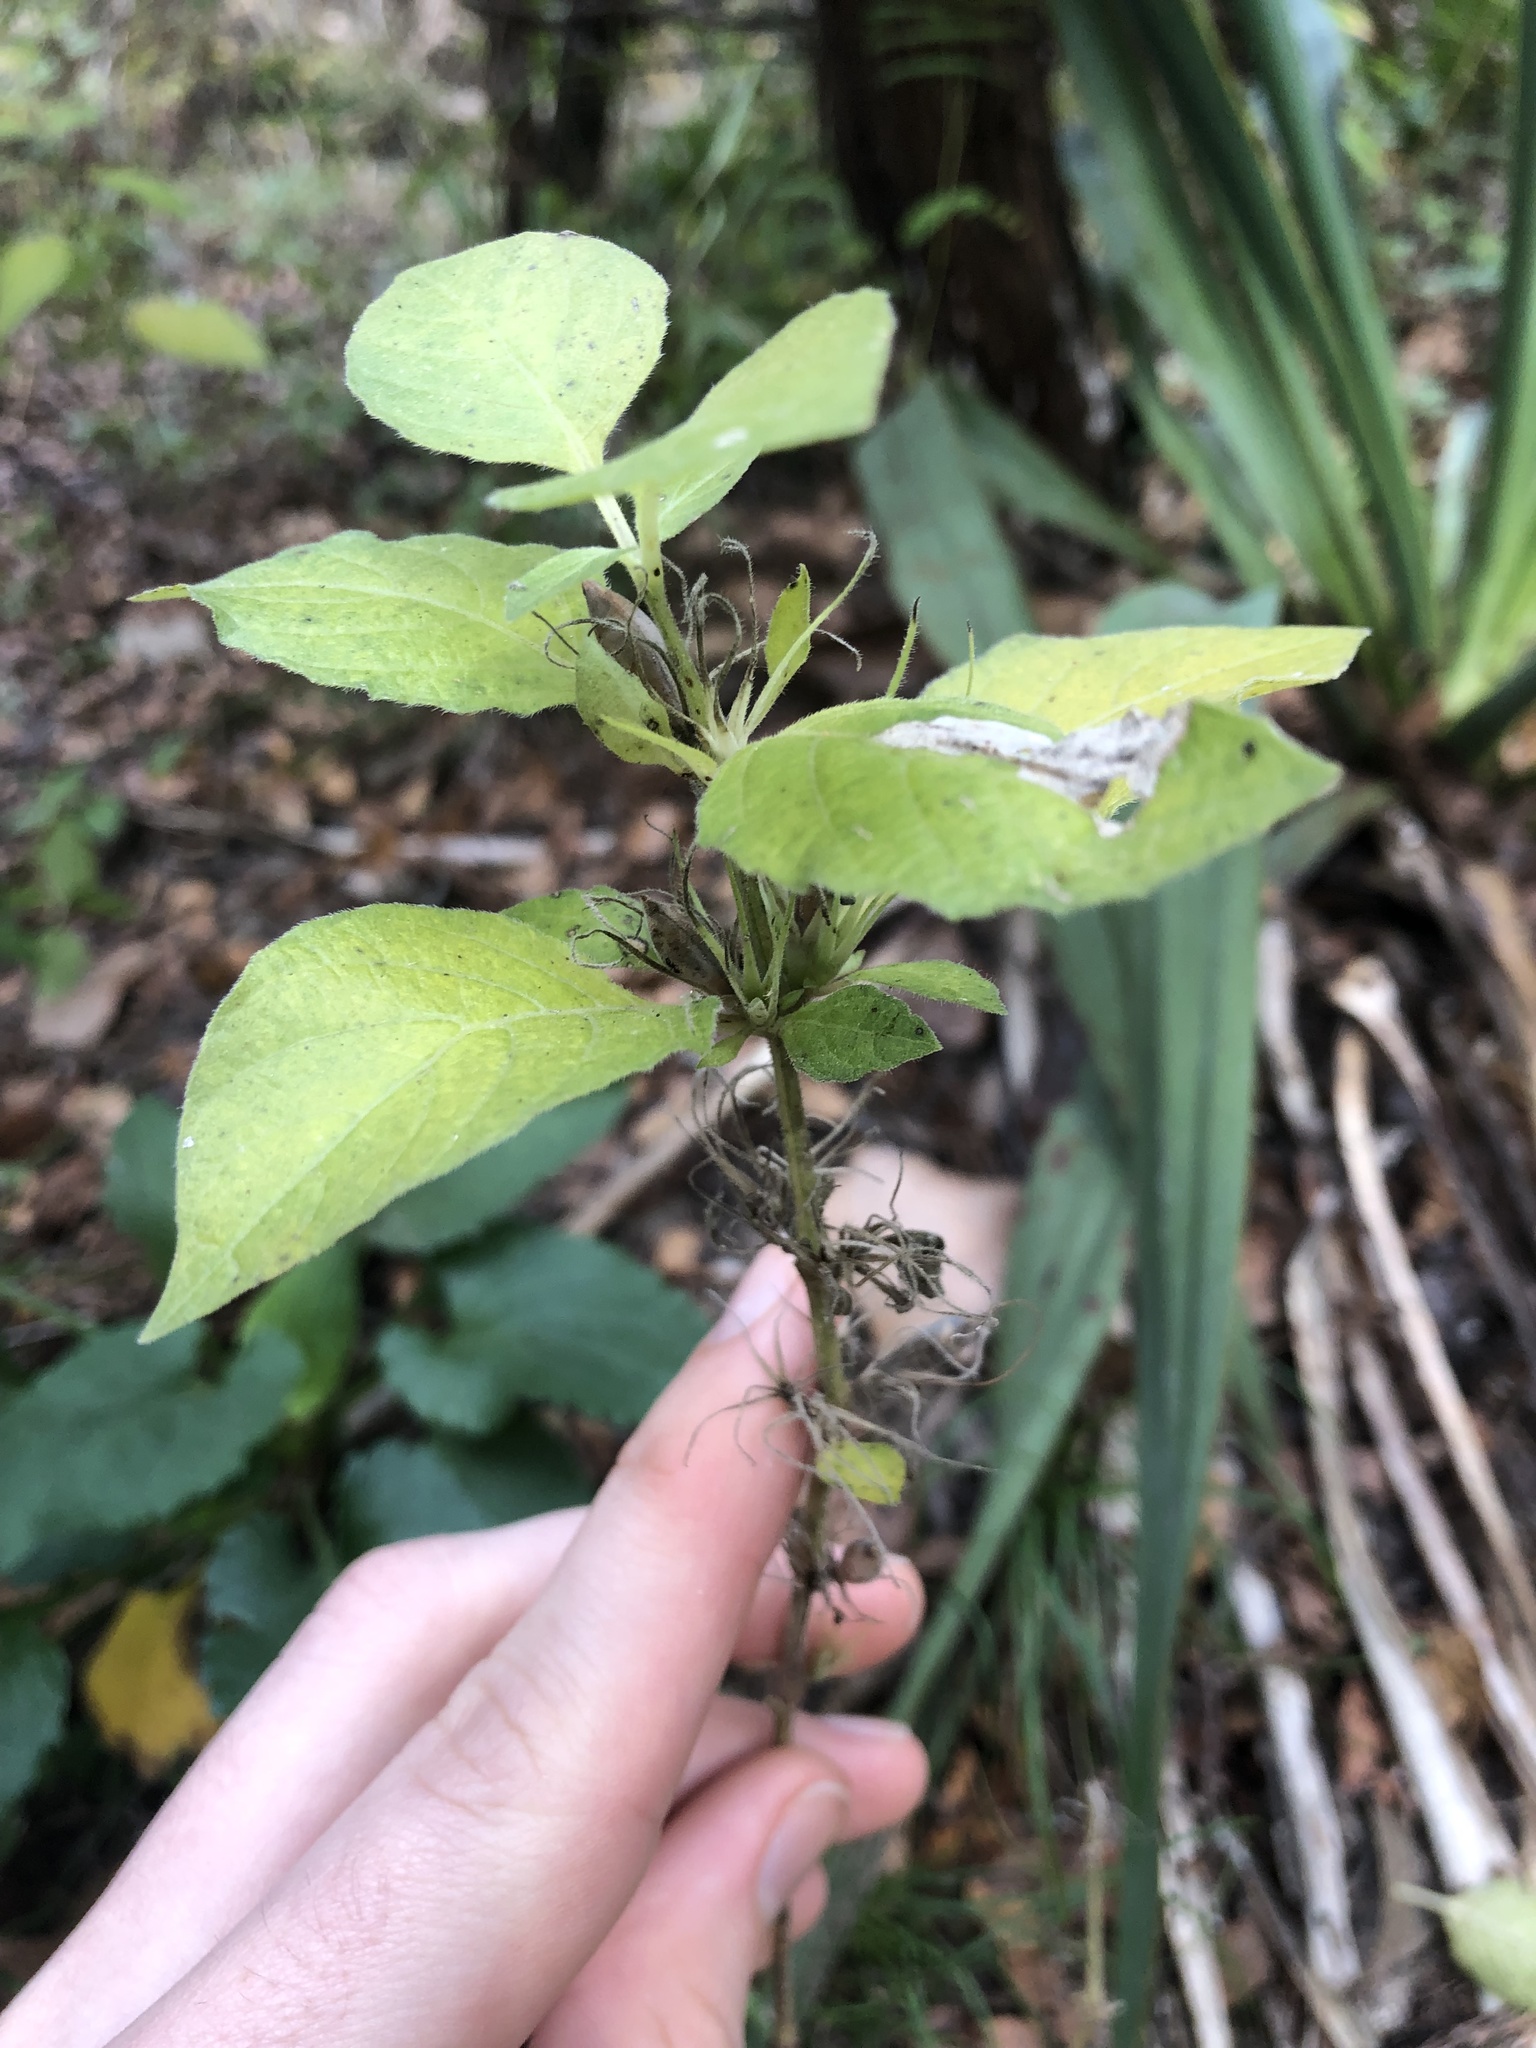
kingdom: Plantae
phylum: Tracheophyta
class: Magnoliopsida
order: Lamiales
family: Acanthaceae
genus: Ruellia
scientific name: Ruellia drummondiana
